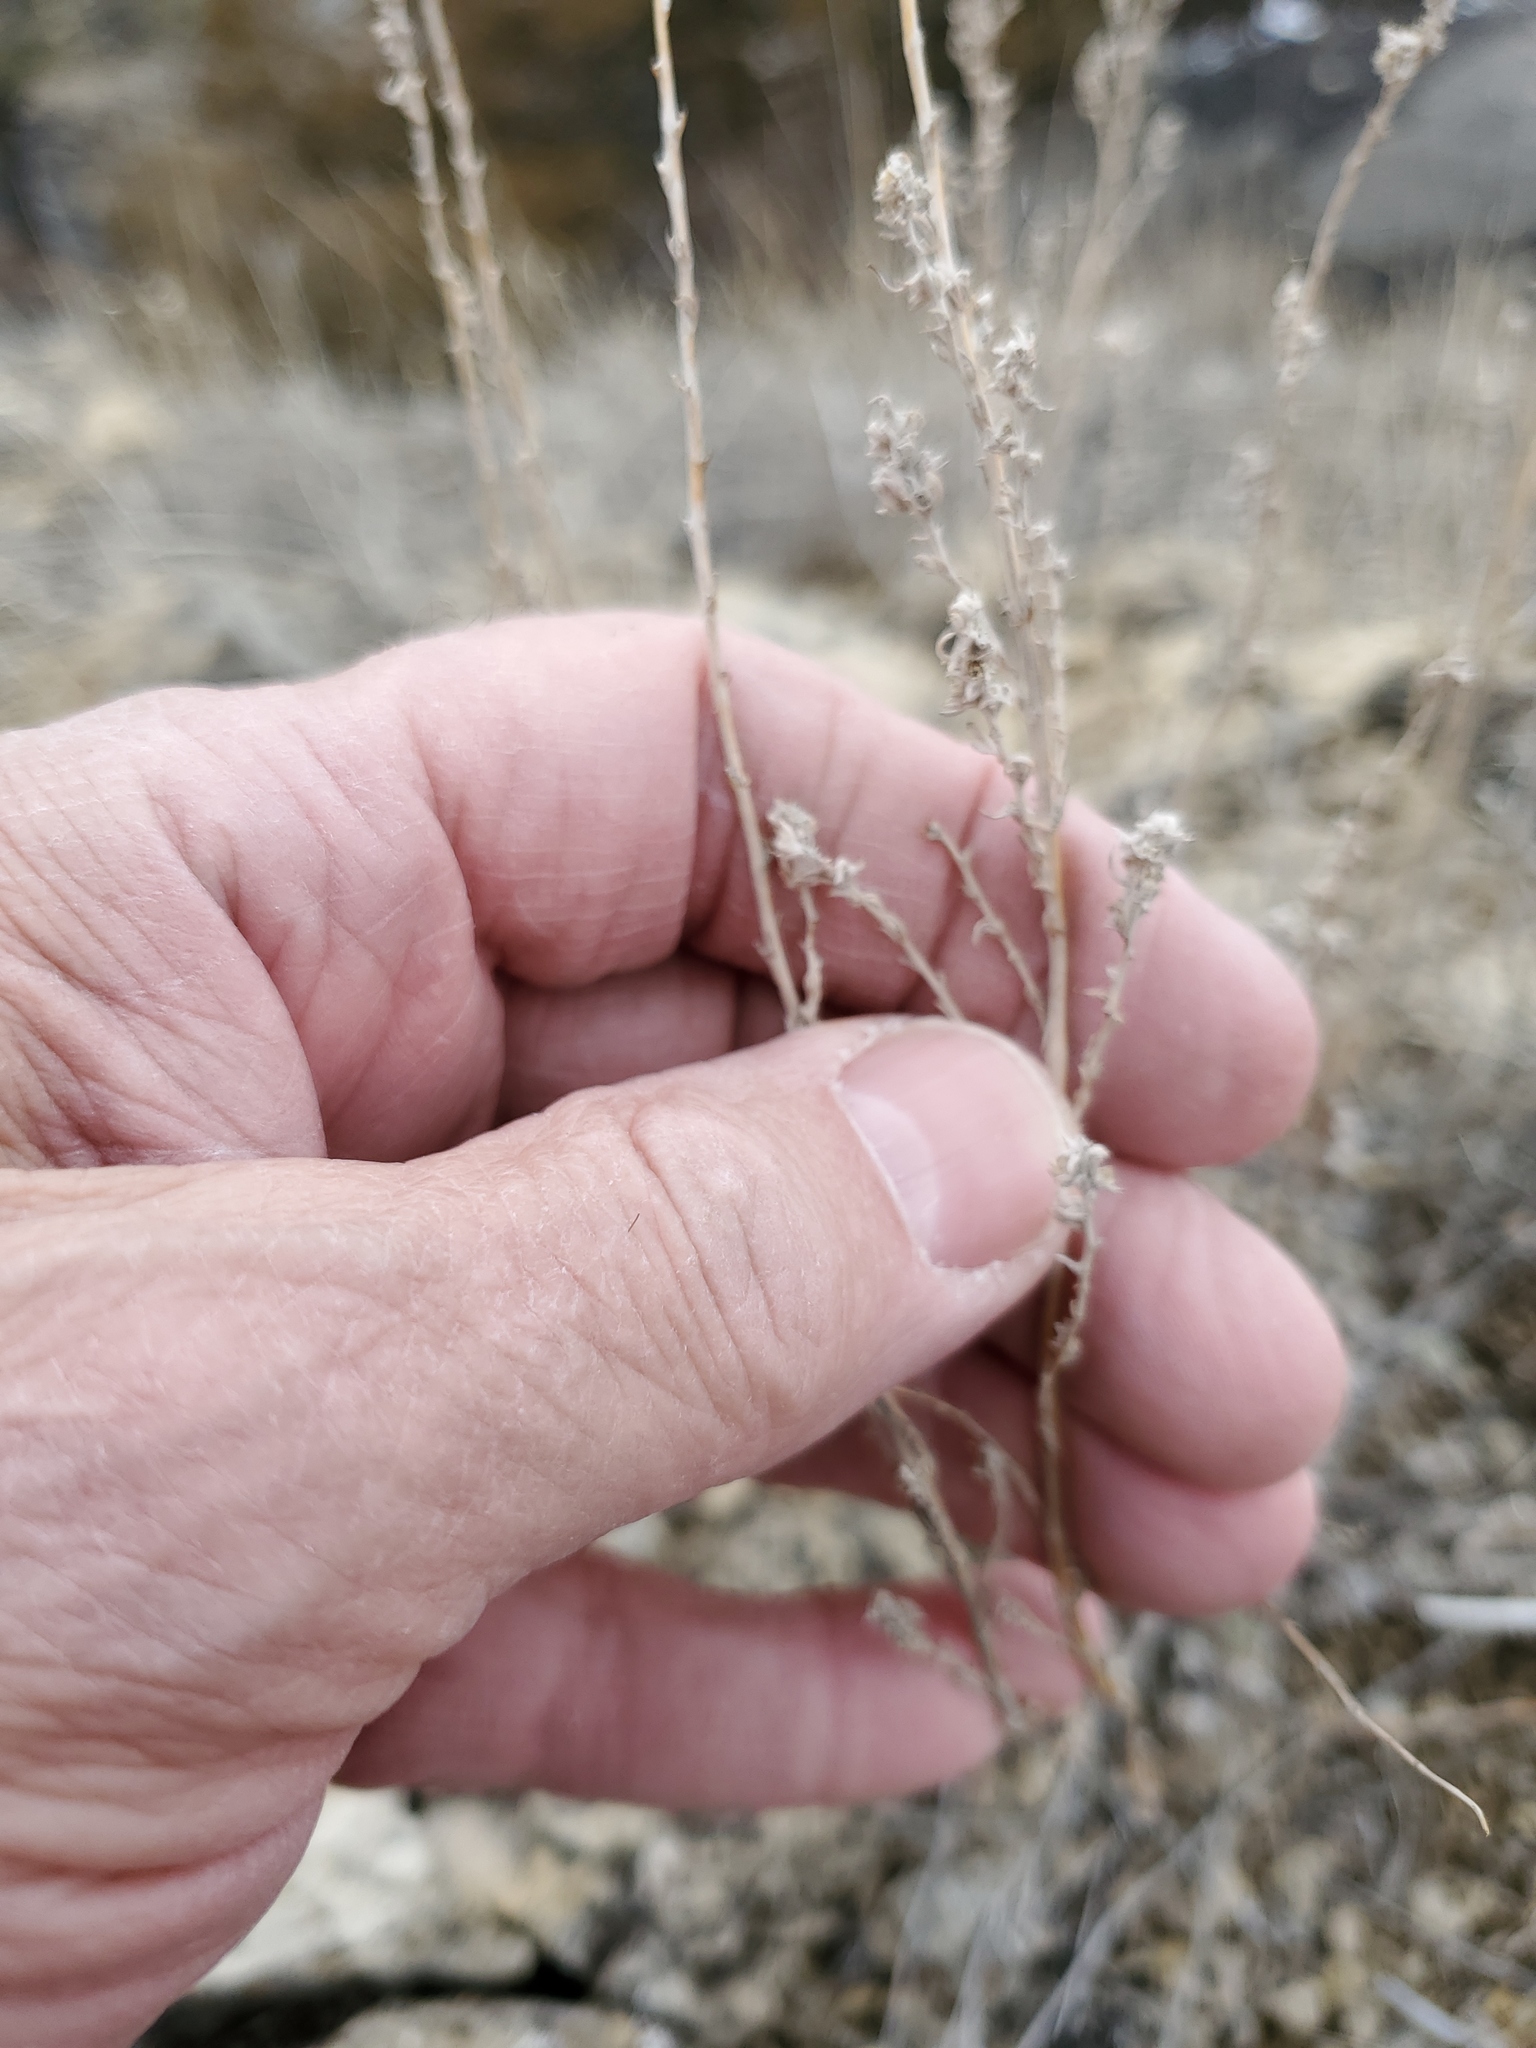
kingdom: Plantae
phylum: Tracheophyta
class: Magnoliopsida
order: Asterales
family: Asteraceae
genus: Artemisia
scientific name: Artemisia frigida
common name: Prairie sagewort
